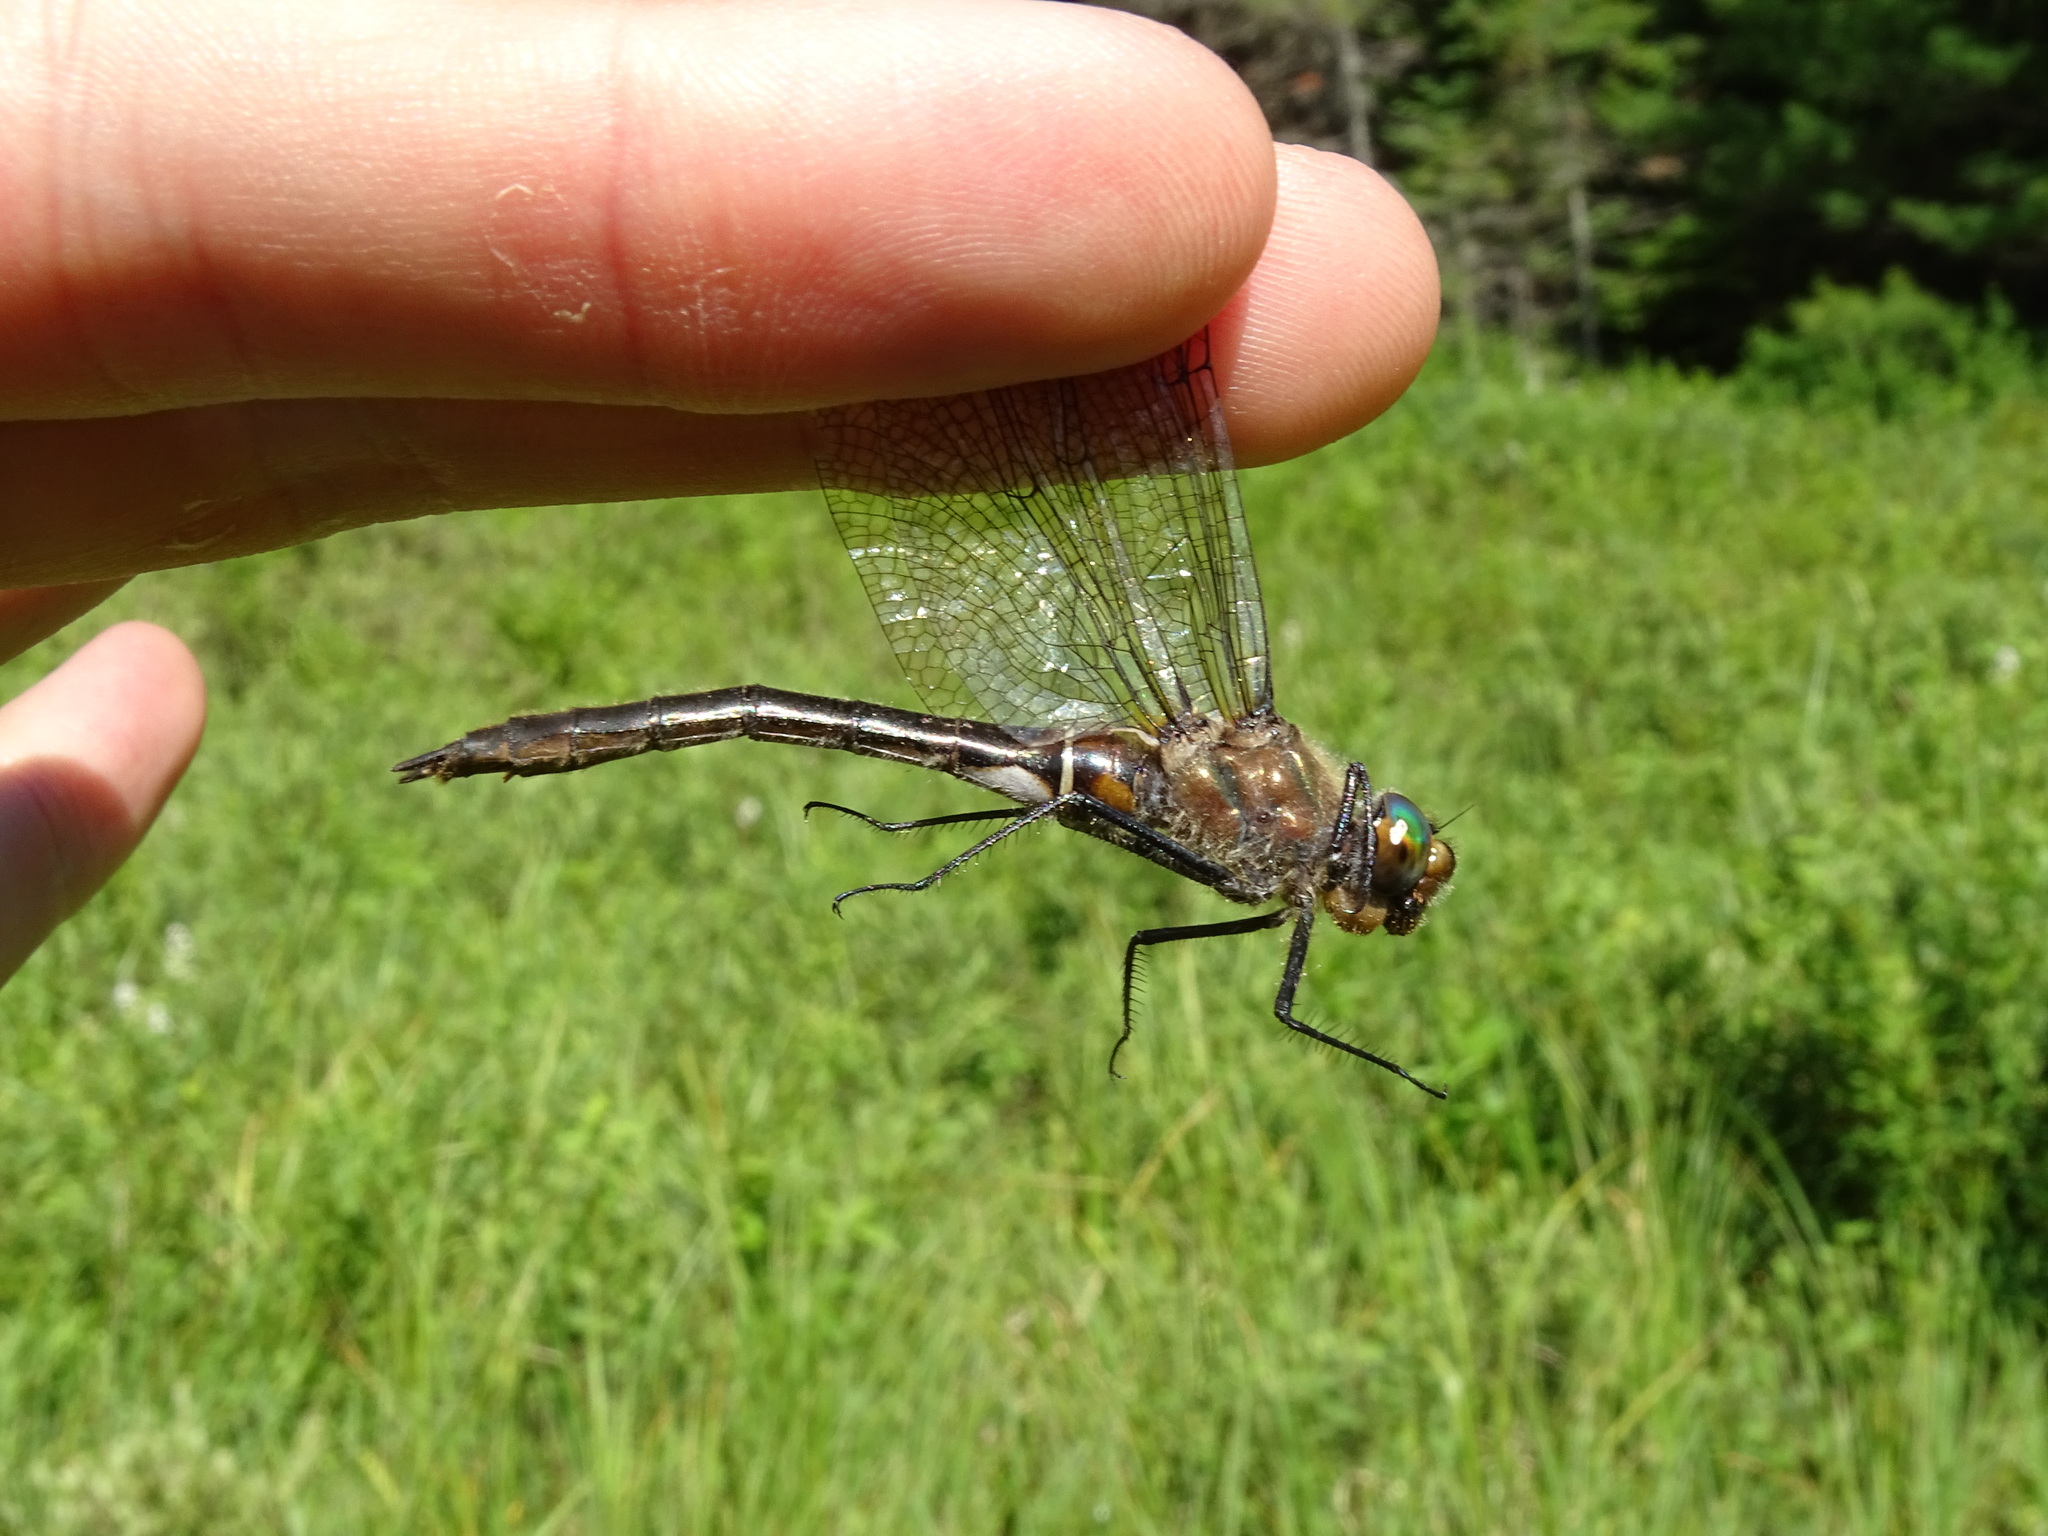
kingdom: Animalia
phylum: Arthropoda
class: Insecta
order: Odonata
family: Corduliidae
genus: Cordulia
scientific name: Cordulia shurtleffii
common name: American emerald
